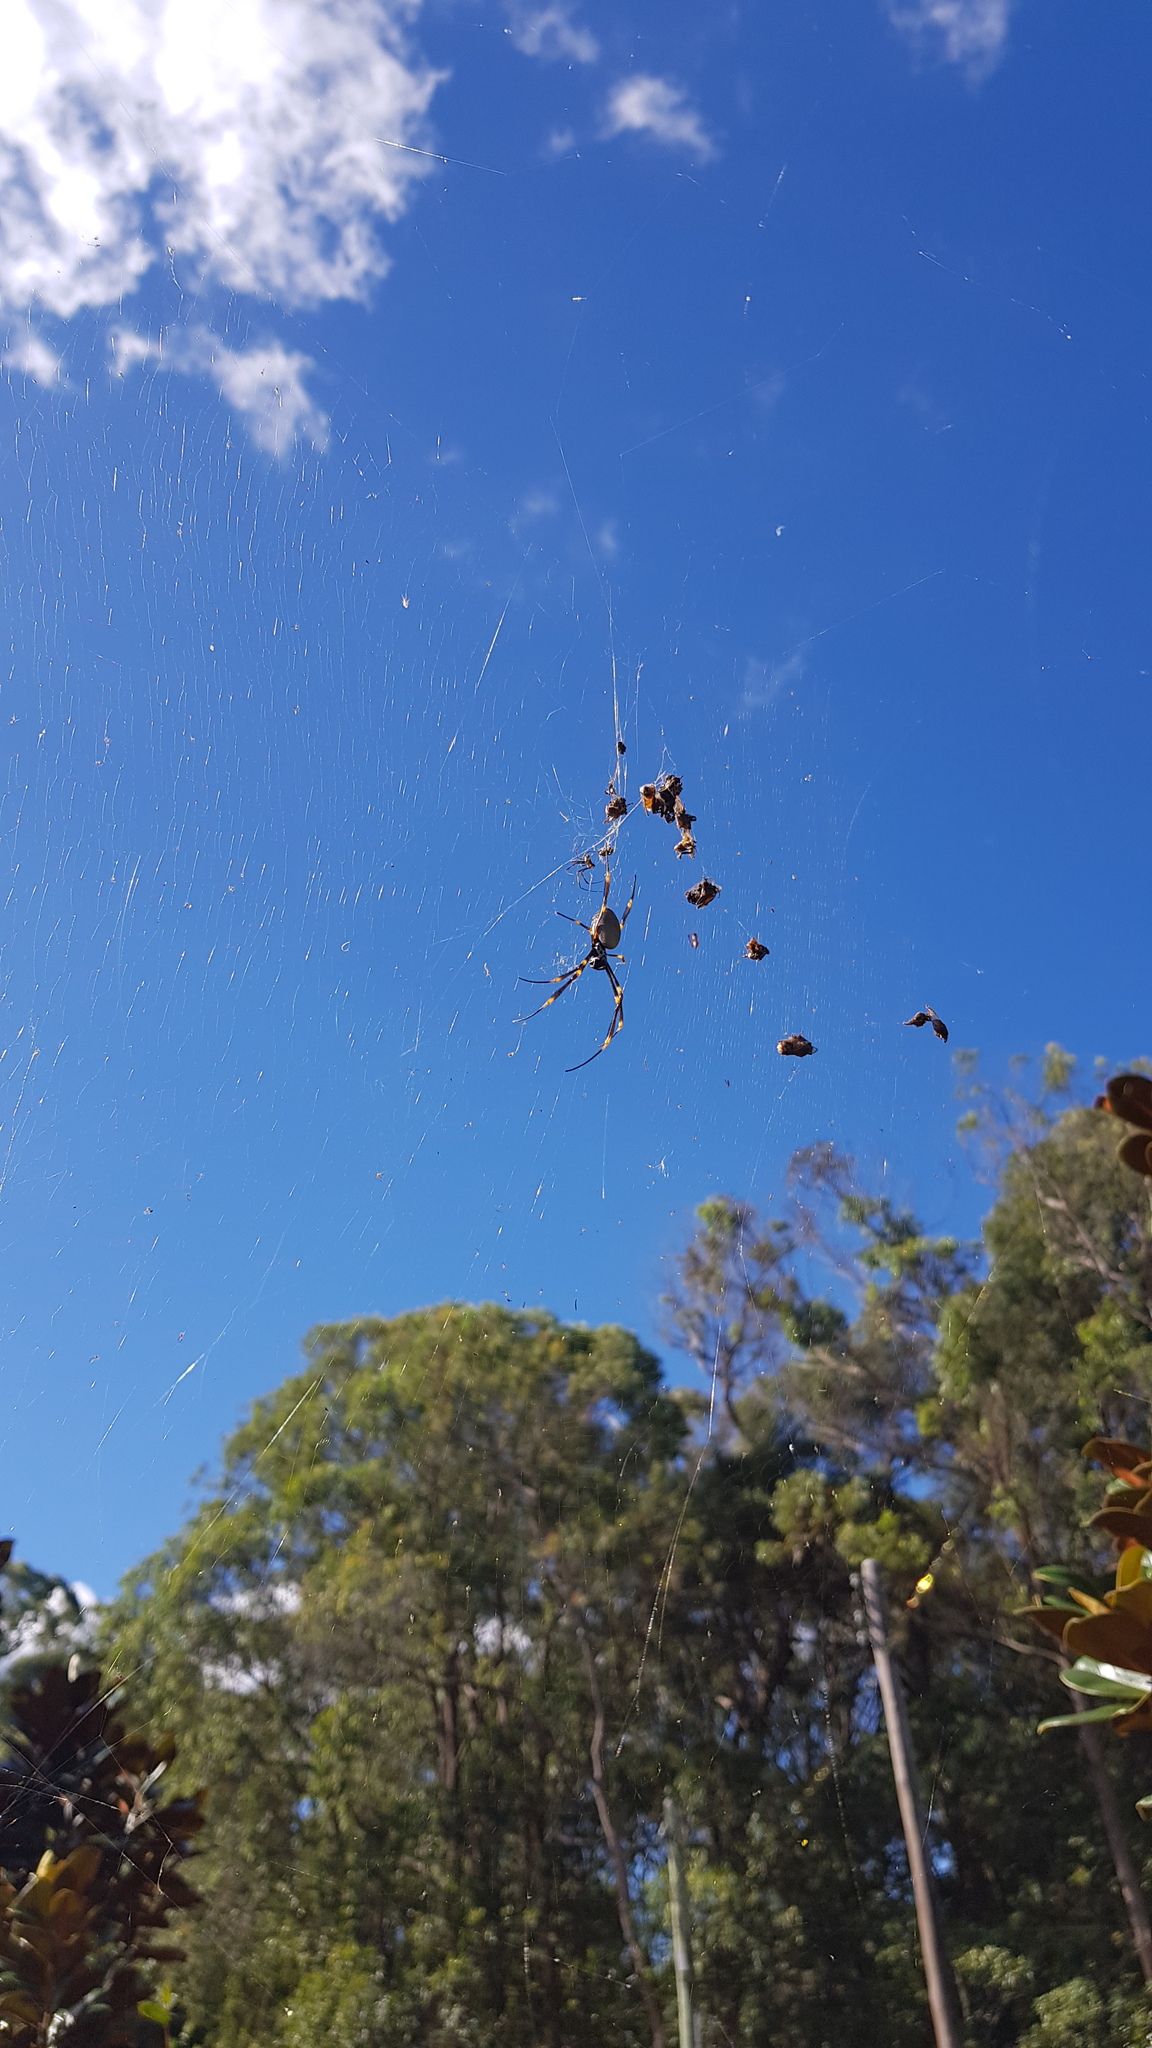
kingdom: Animalia
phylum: Arthropoda
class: Arachnida
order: Araneae
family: Araneidae
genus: Trichonephila
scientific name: Trichonephila plumipes
